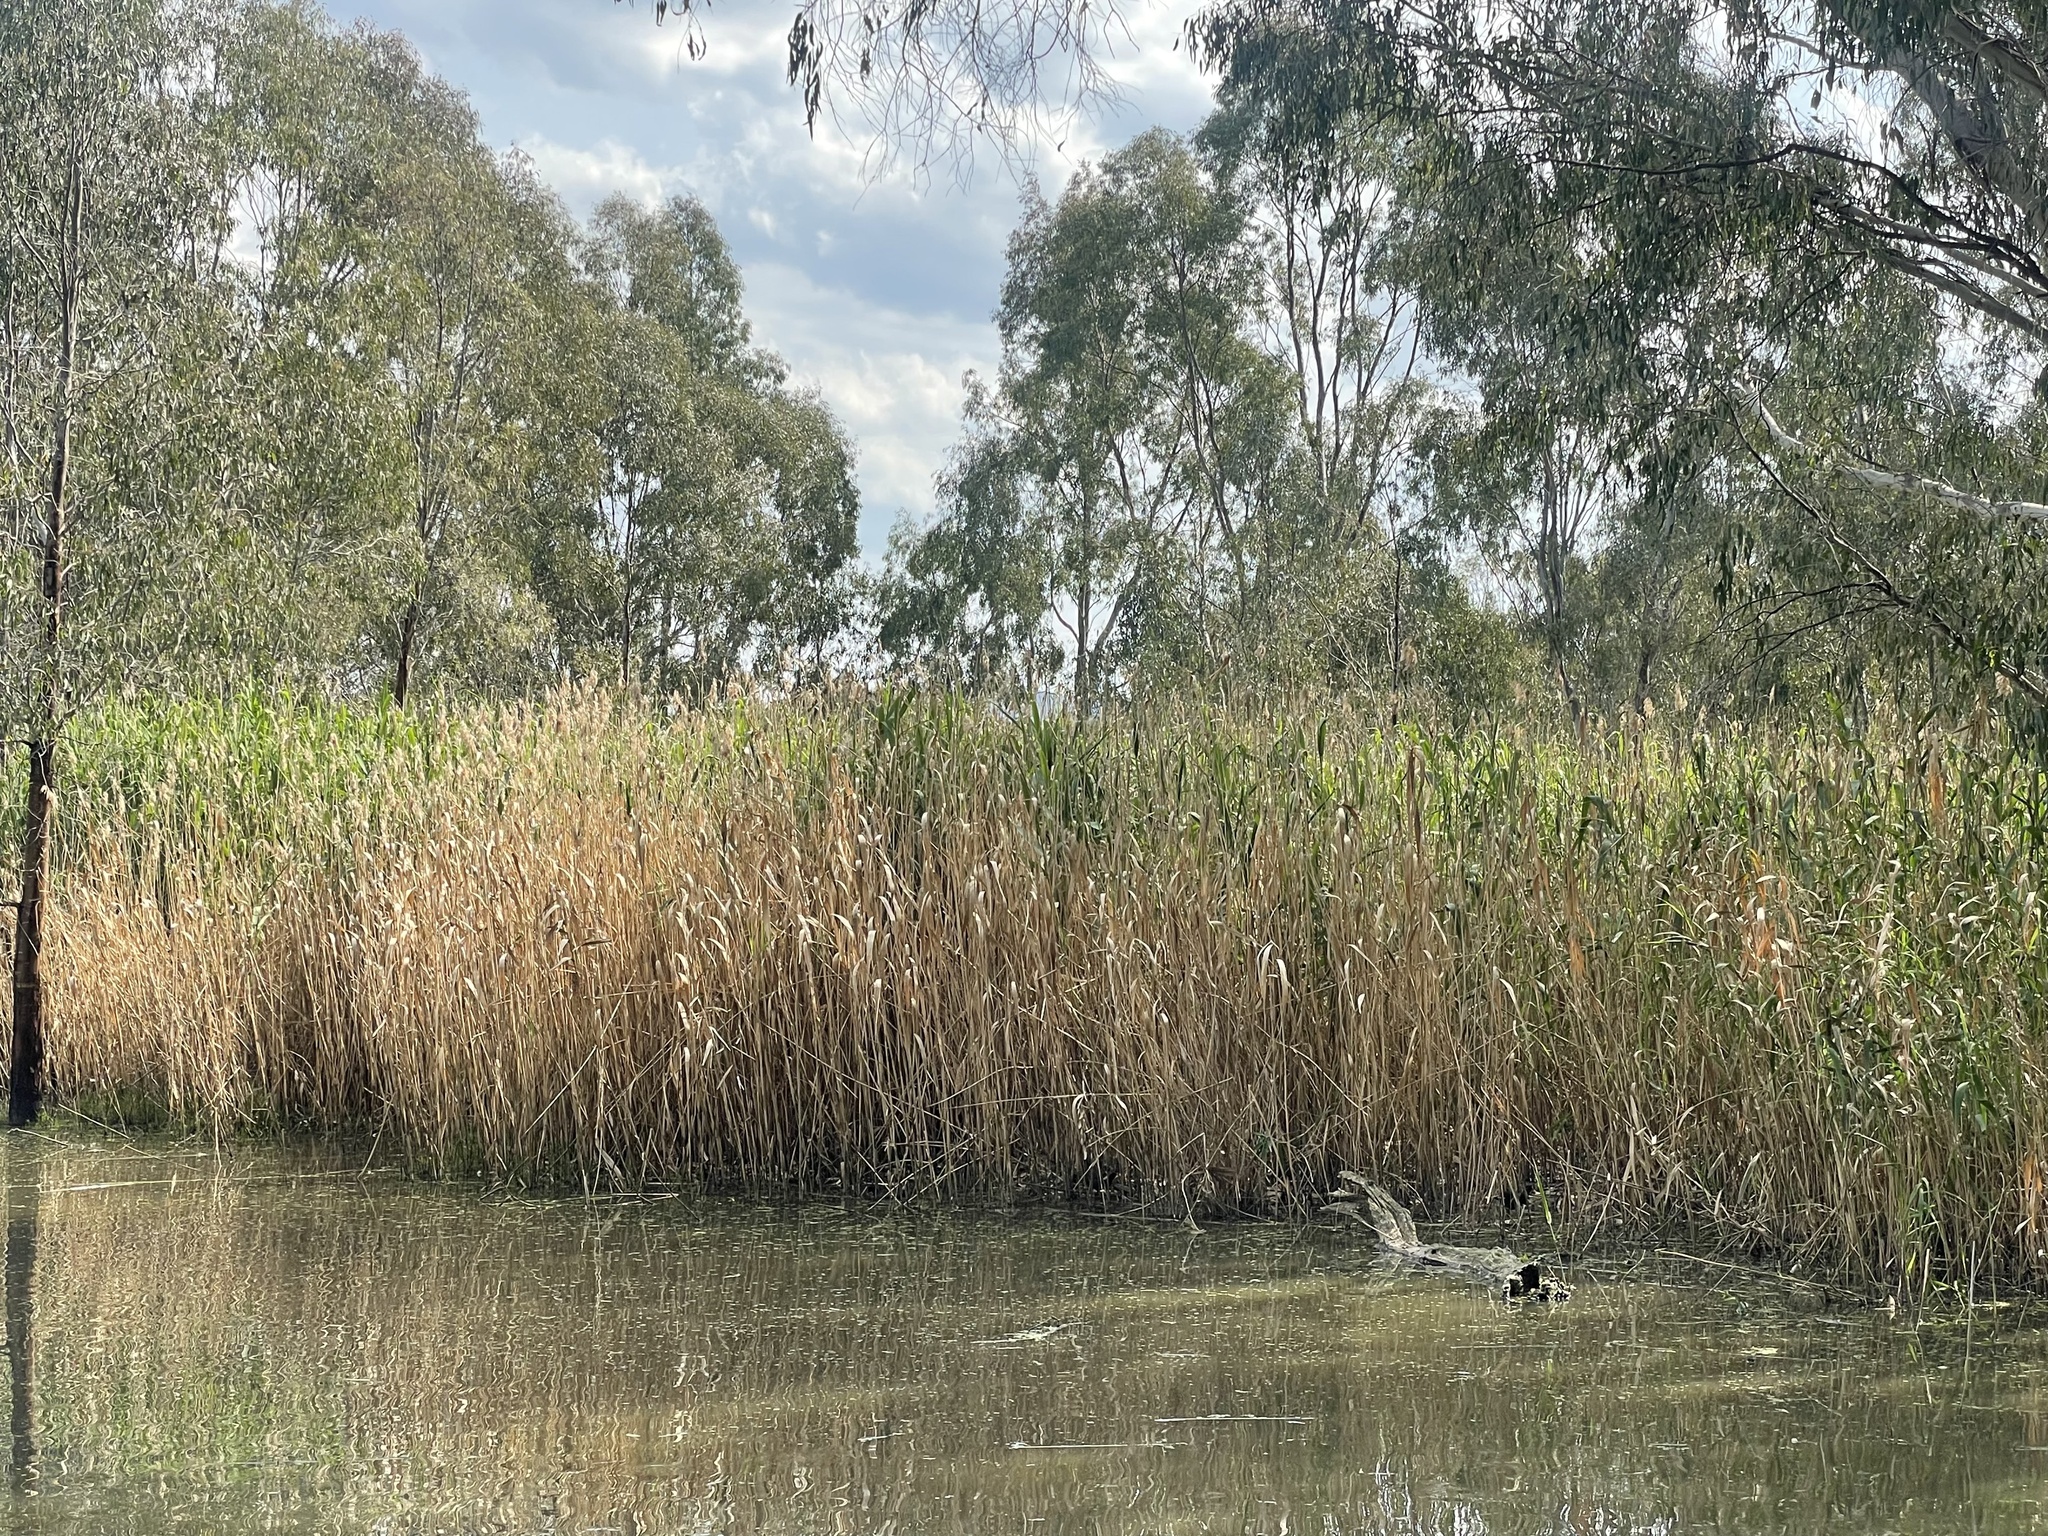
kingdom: Plantae
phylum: Tracheophyta
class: Liliopsida
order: Poales
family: Poaceae
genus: Phragmites
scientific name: Phragmites australis
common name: Common reed
